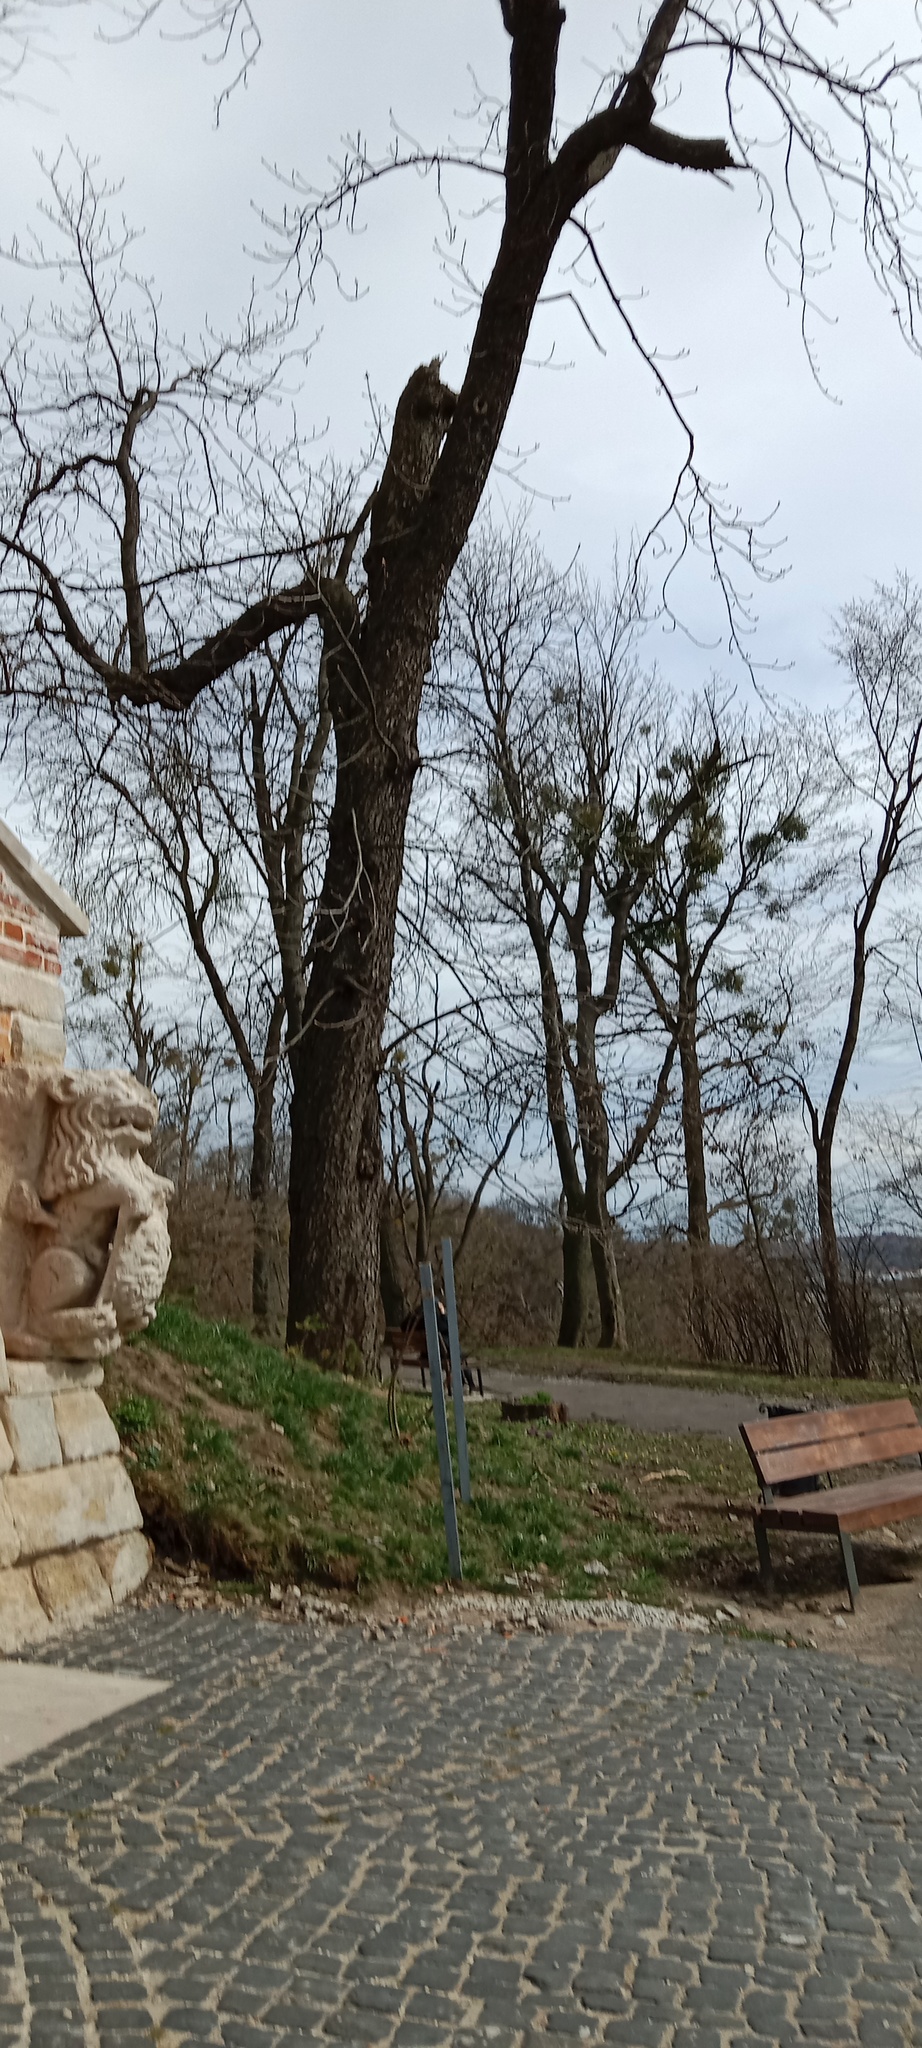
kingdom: Plantae
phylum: Tracheophyta
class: Magnoliopsida
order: Santalales
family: Viscaceae
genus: Viscum
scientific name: Viscum album
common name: Mistletoe
